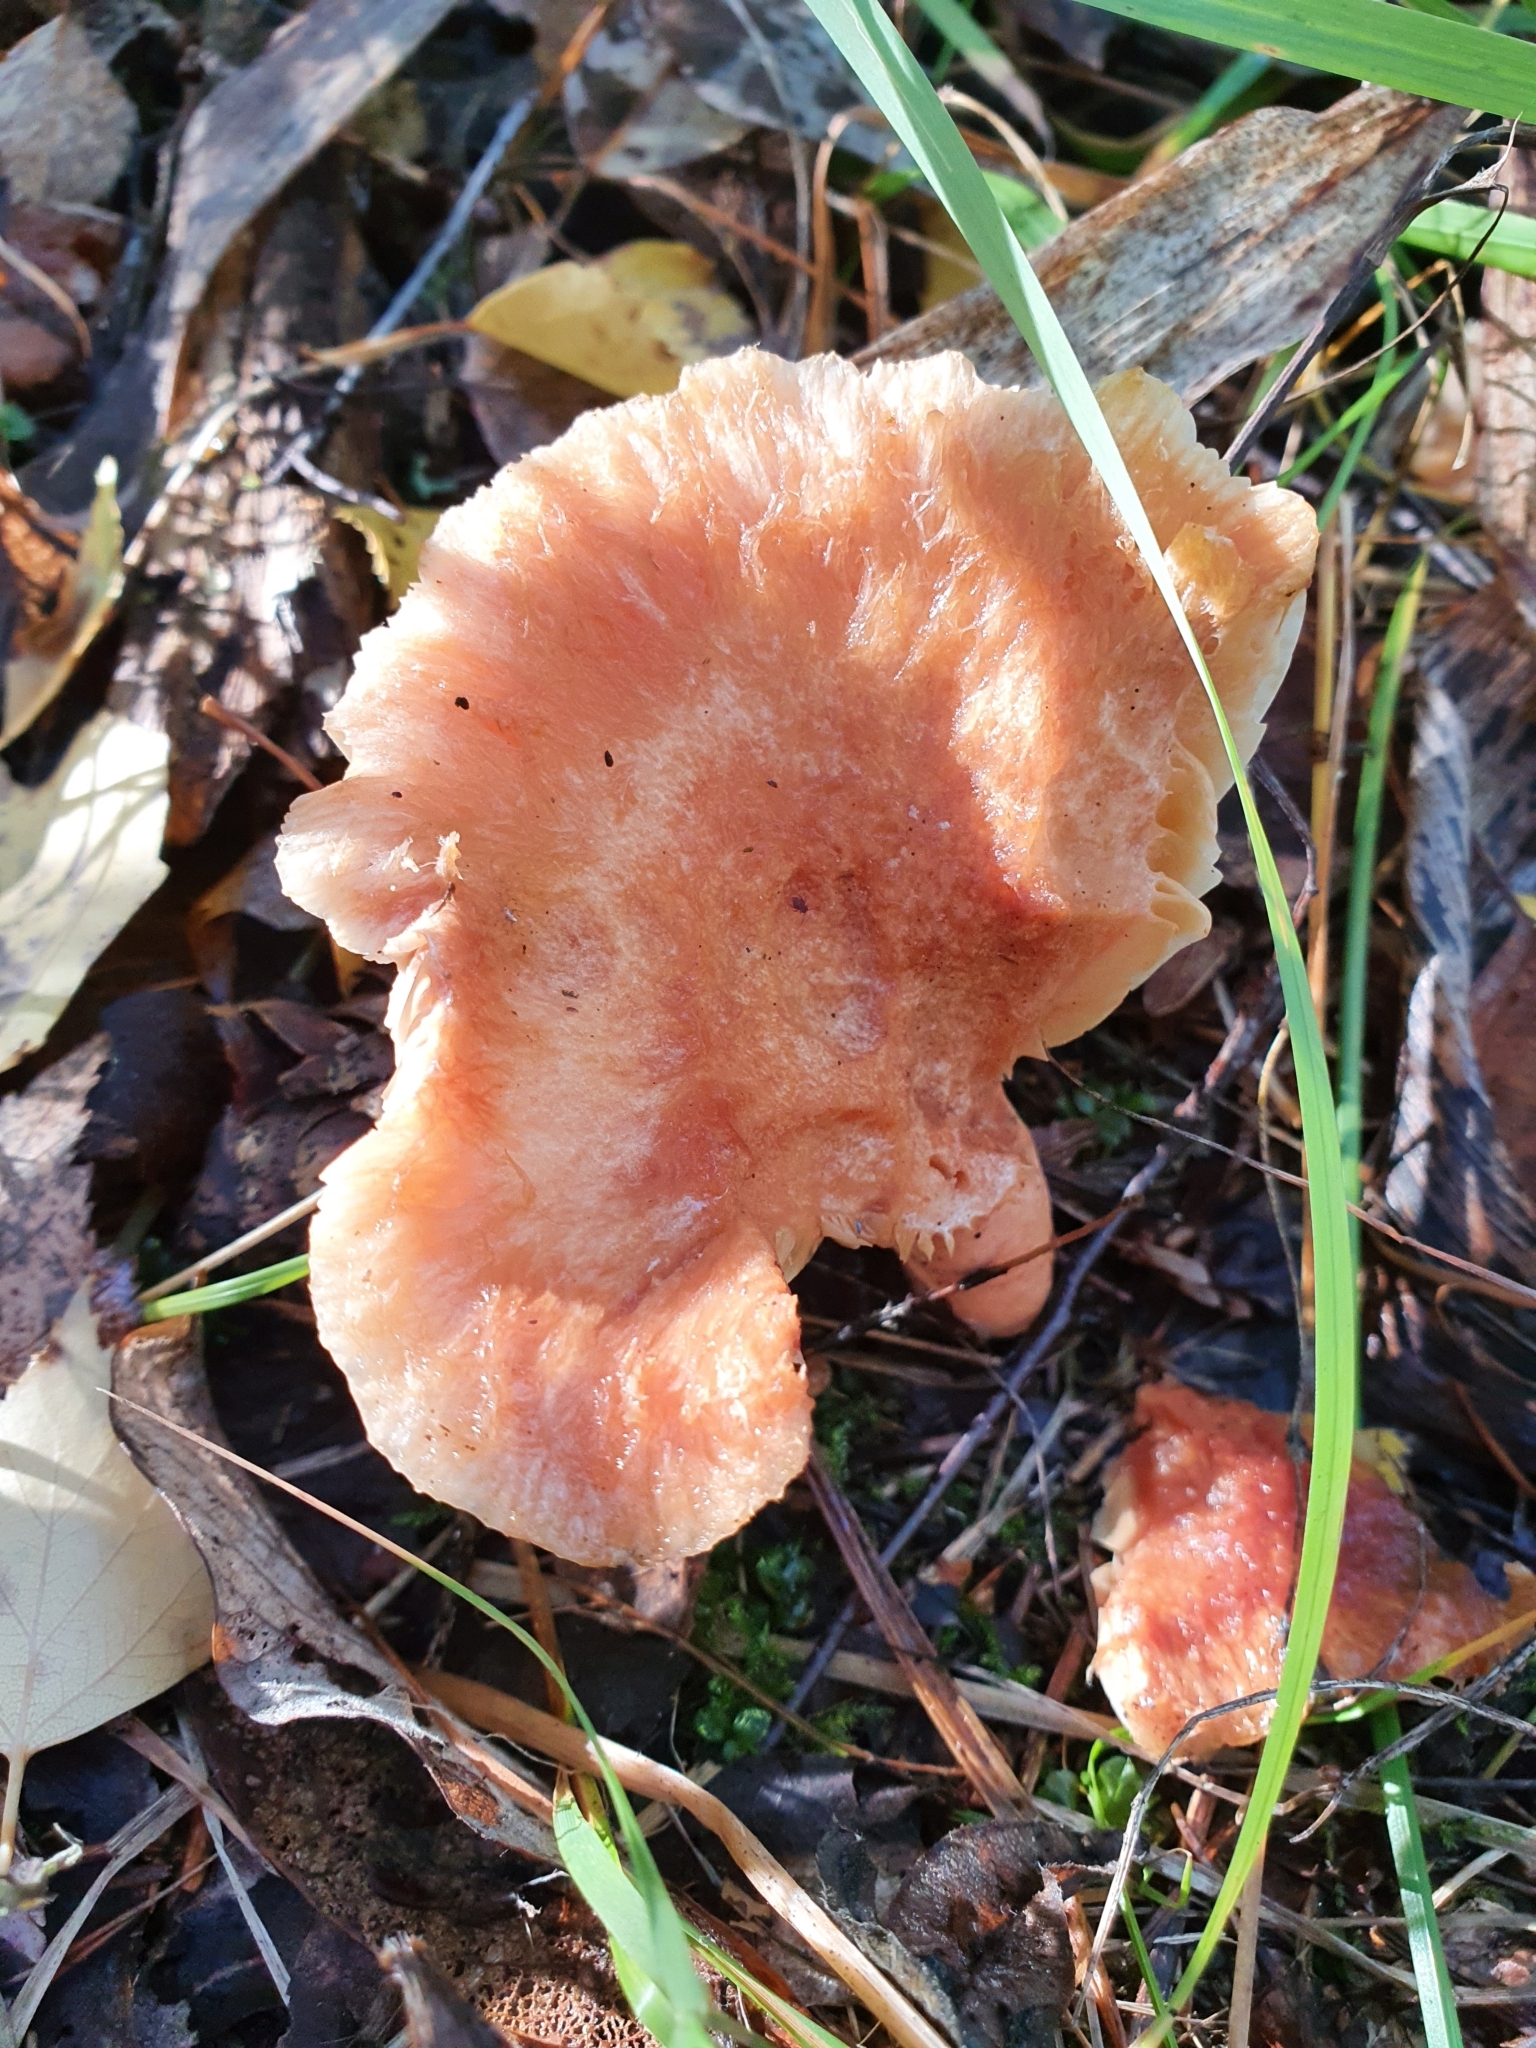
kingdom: Fungi
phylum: Basidiomycota
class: Agaricomycetes
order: Russulales
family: Russulaceae
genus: Lactarius
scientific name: Lactarius torminosus
